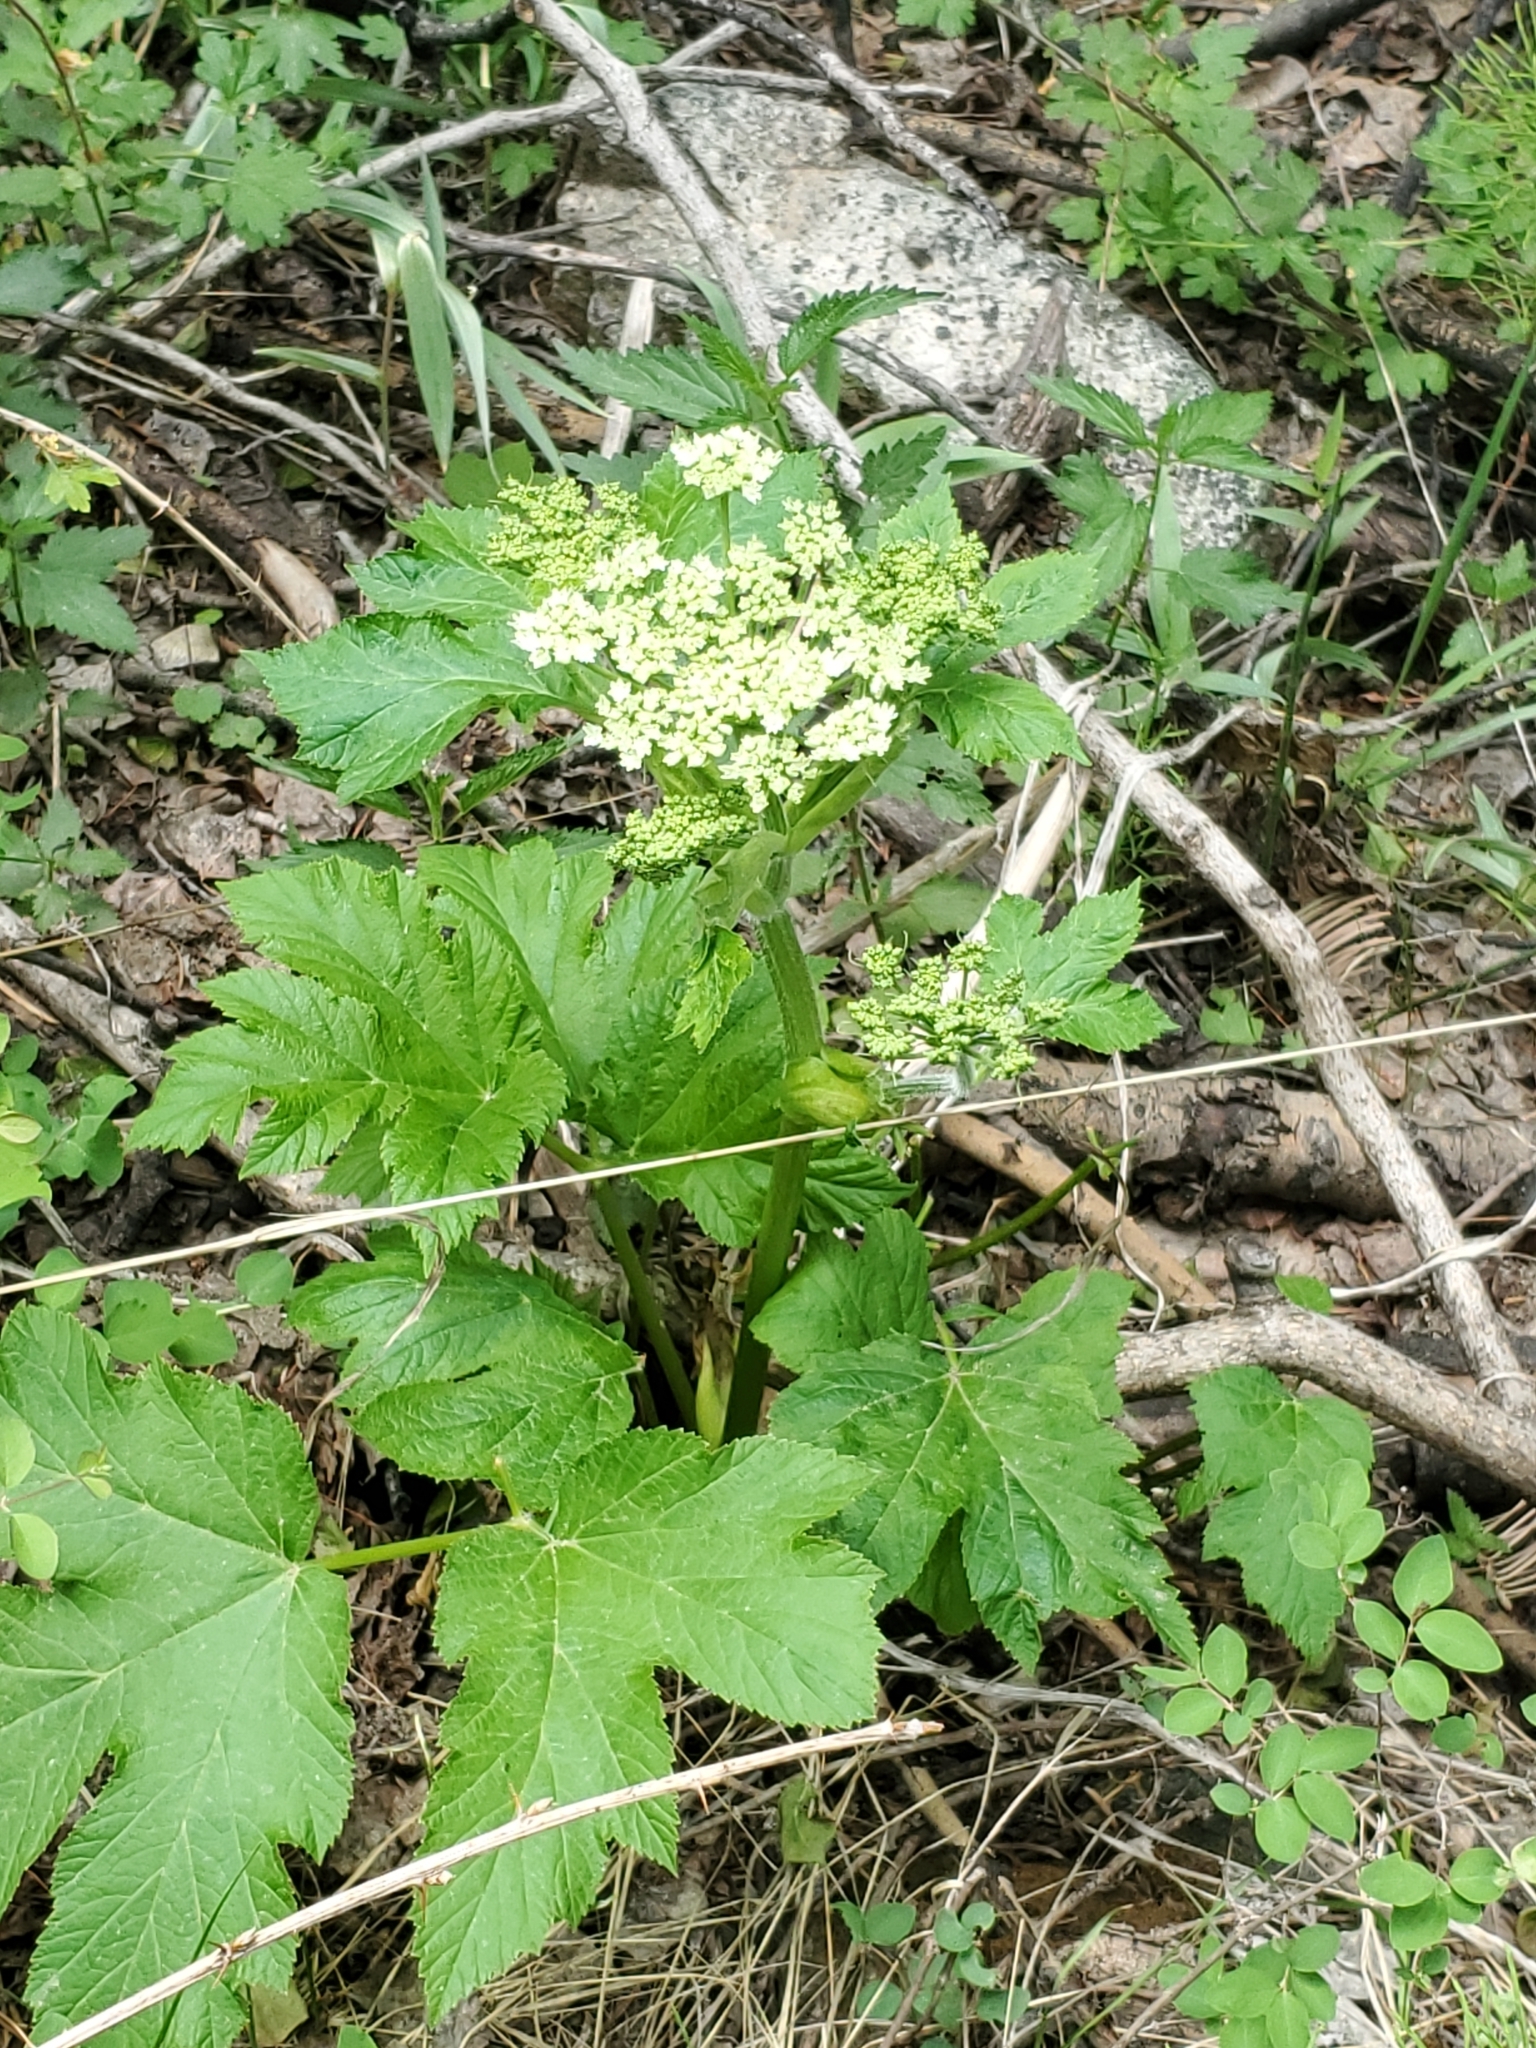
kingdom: Plantae
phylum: Tracheophyta
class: Magnoliopsida
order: Apiales
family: Apiaceae
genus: Heracleum
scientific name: Heracleum maximum
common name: American cow parsnip
